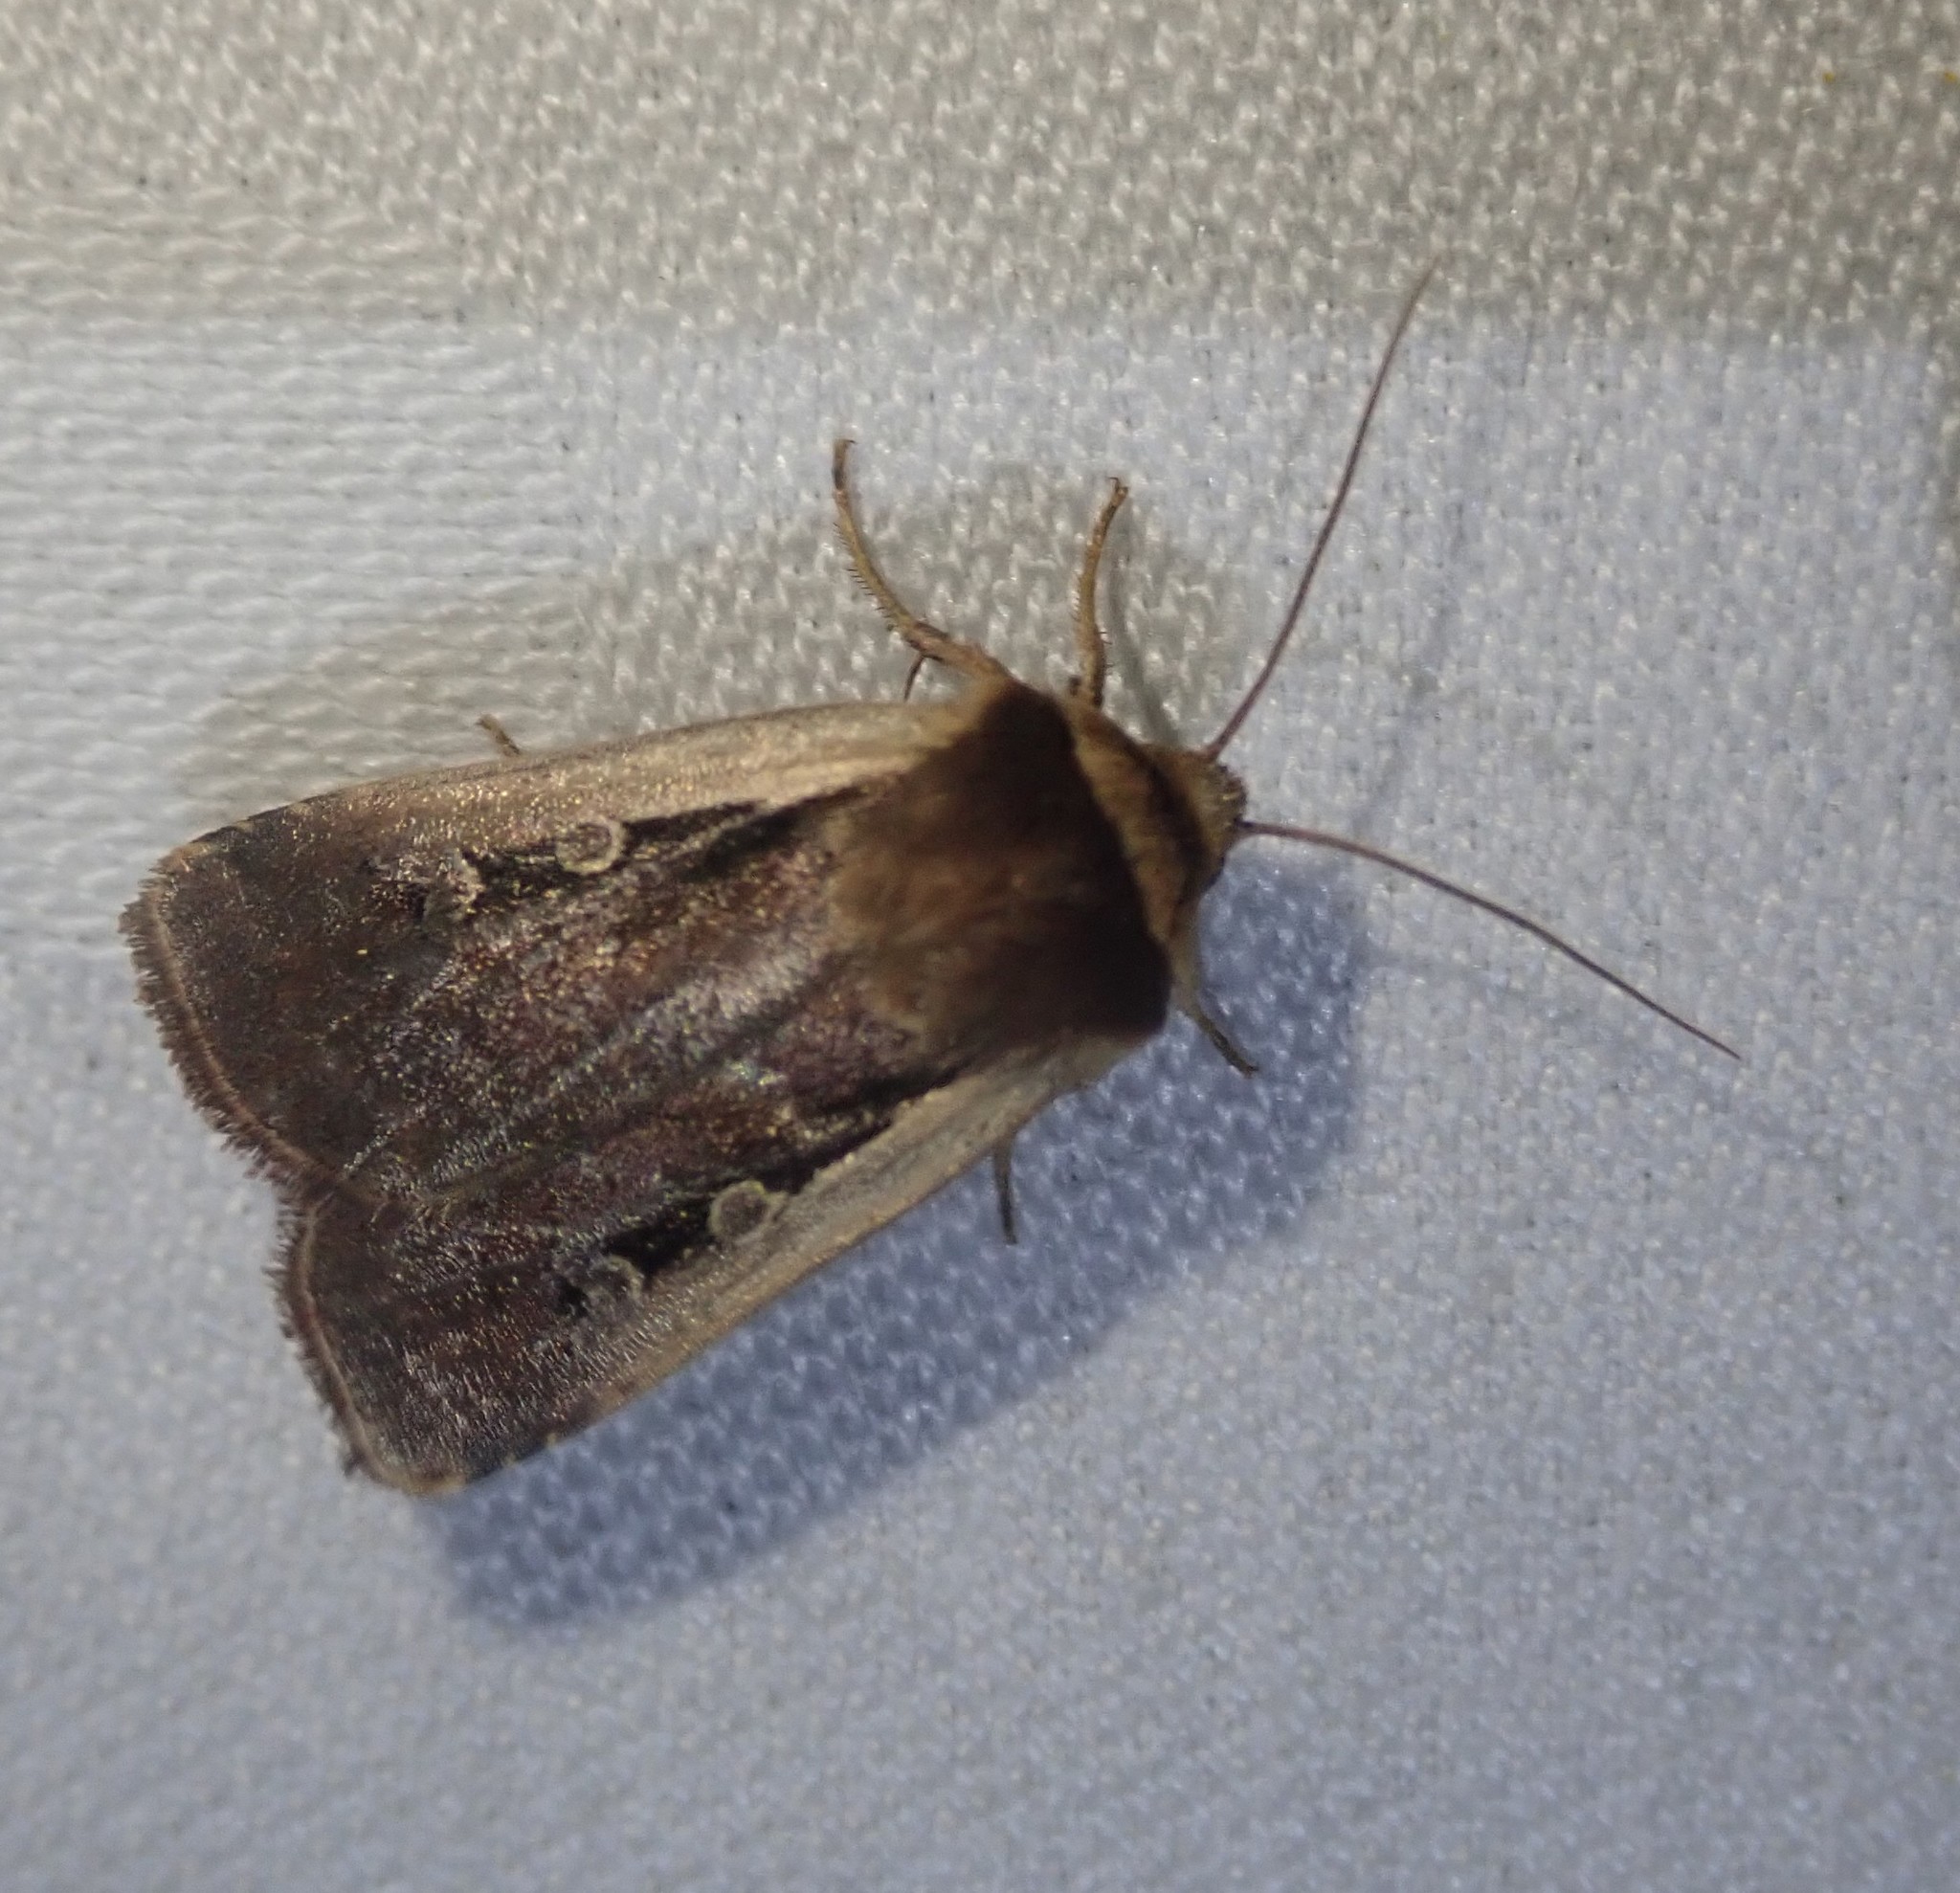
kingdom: Animalia
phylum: Arthropoda
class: Insecta
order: Lepidoptera
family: Noctuidae
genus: Ochropleura
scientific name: Ochropleura plecta
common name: Flame shoulder
